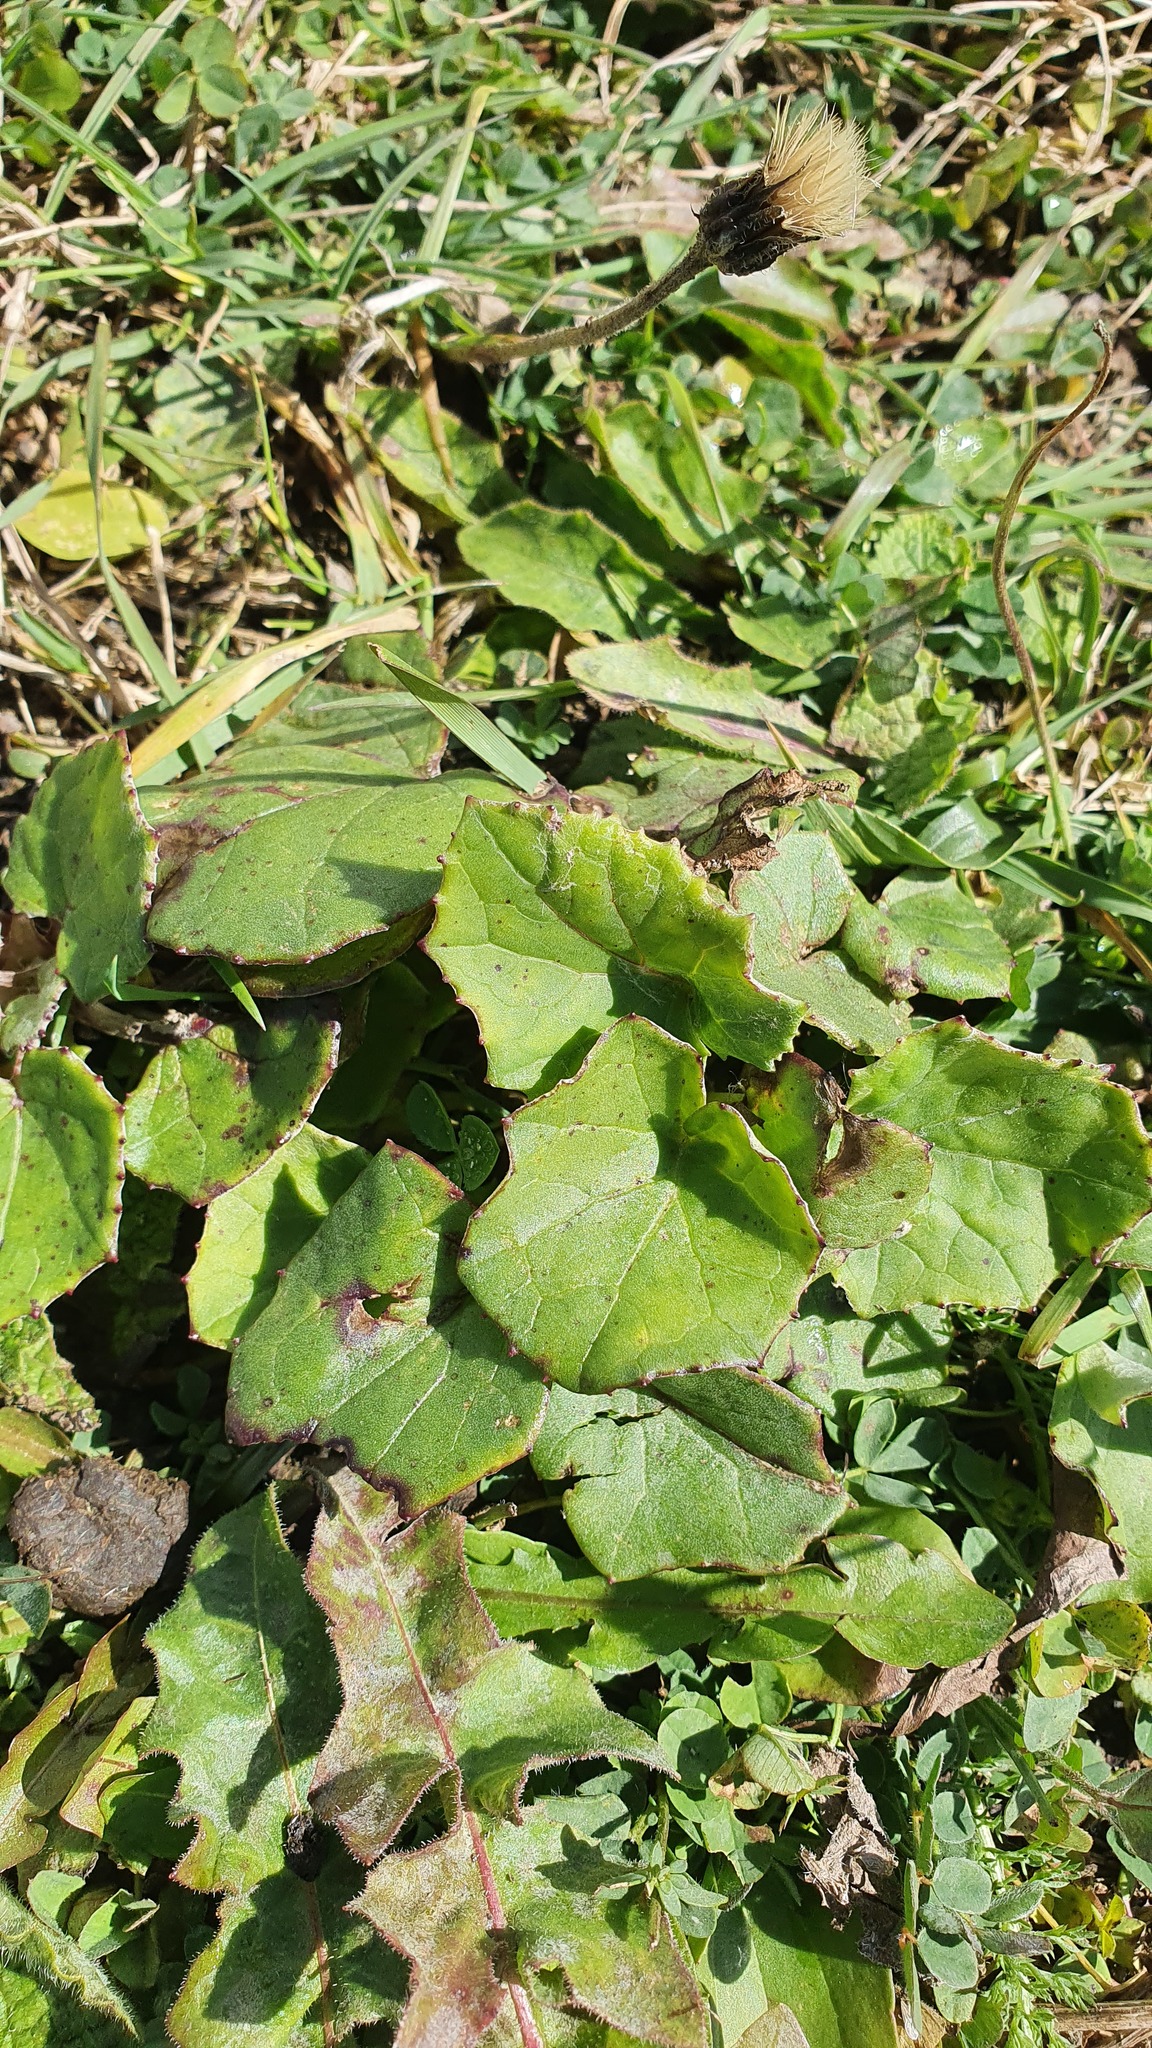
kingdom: Plantae
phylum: Tracheophyta
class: Magnoliopsida
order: Asterales
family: Asteraceae
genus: Tussilago
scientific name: Tussilago farfara
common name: Coltsfoot
